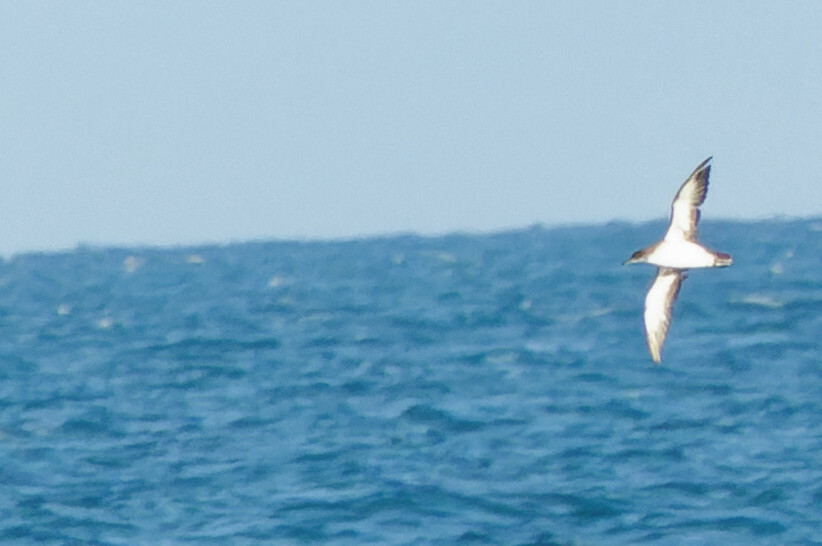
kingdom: Animalia
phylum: Chordata
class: Aves
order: Procellariiformes
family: Procellariidae
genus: Puffinus
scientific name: Puffinus opisthomelas
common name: Black-vented shearwater
